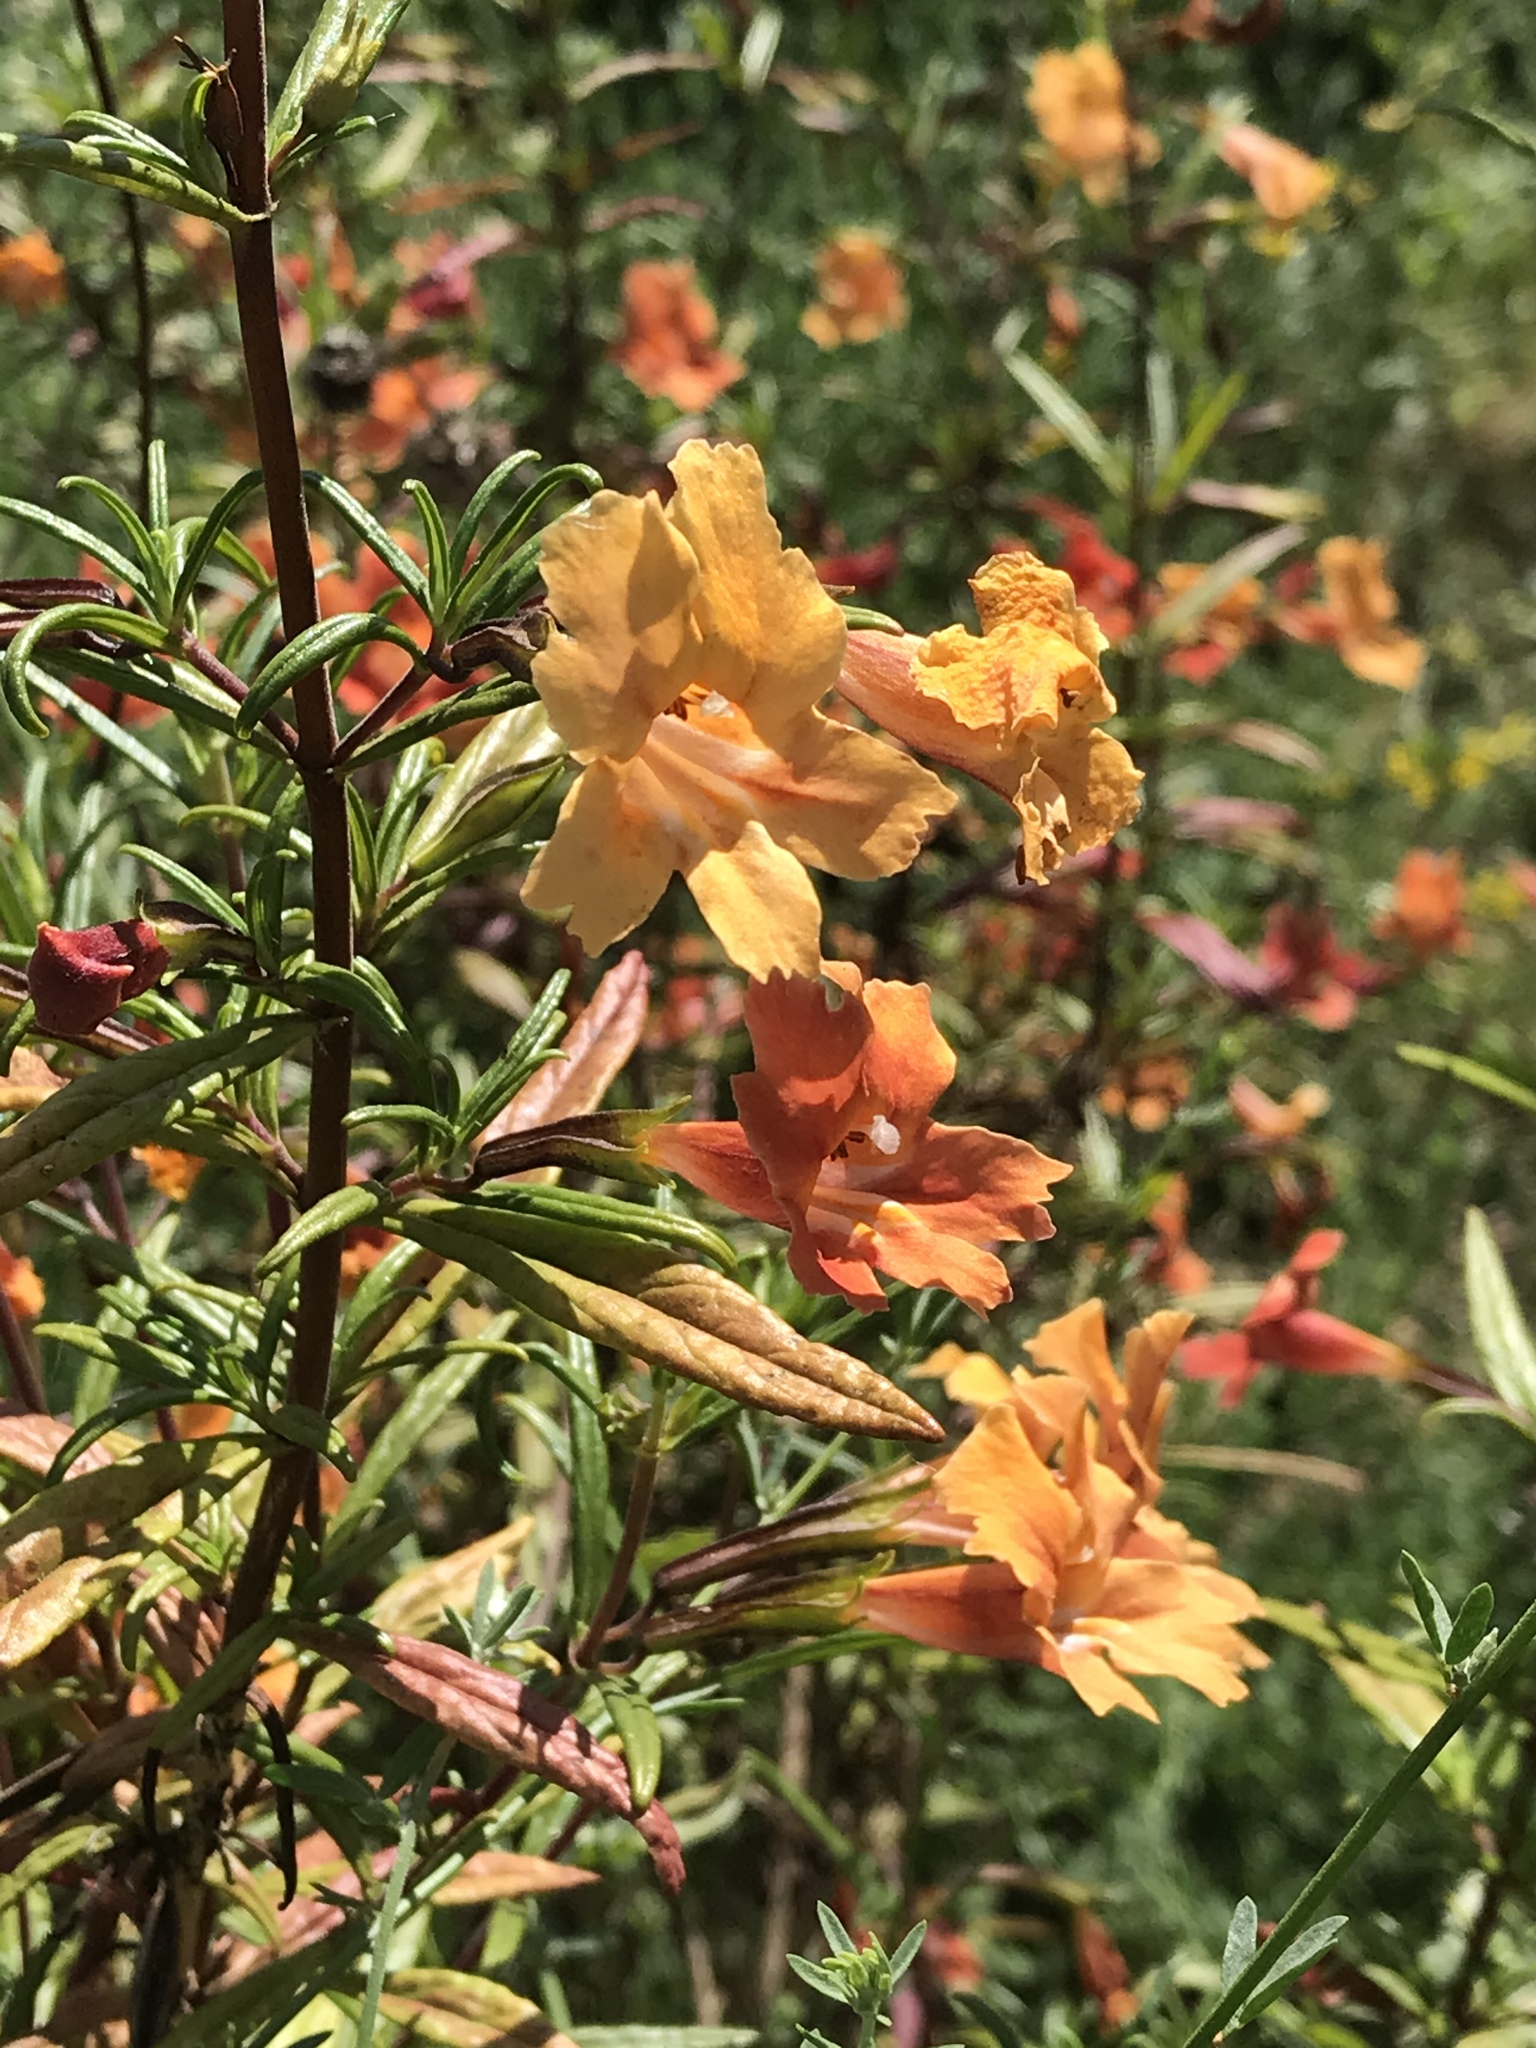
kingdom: Plantae
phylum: Tracheophyta
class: Magnoliopsida
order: Lamiales
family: Phrymaceae
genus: Diplacus
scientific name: Diplacus australis
